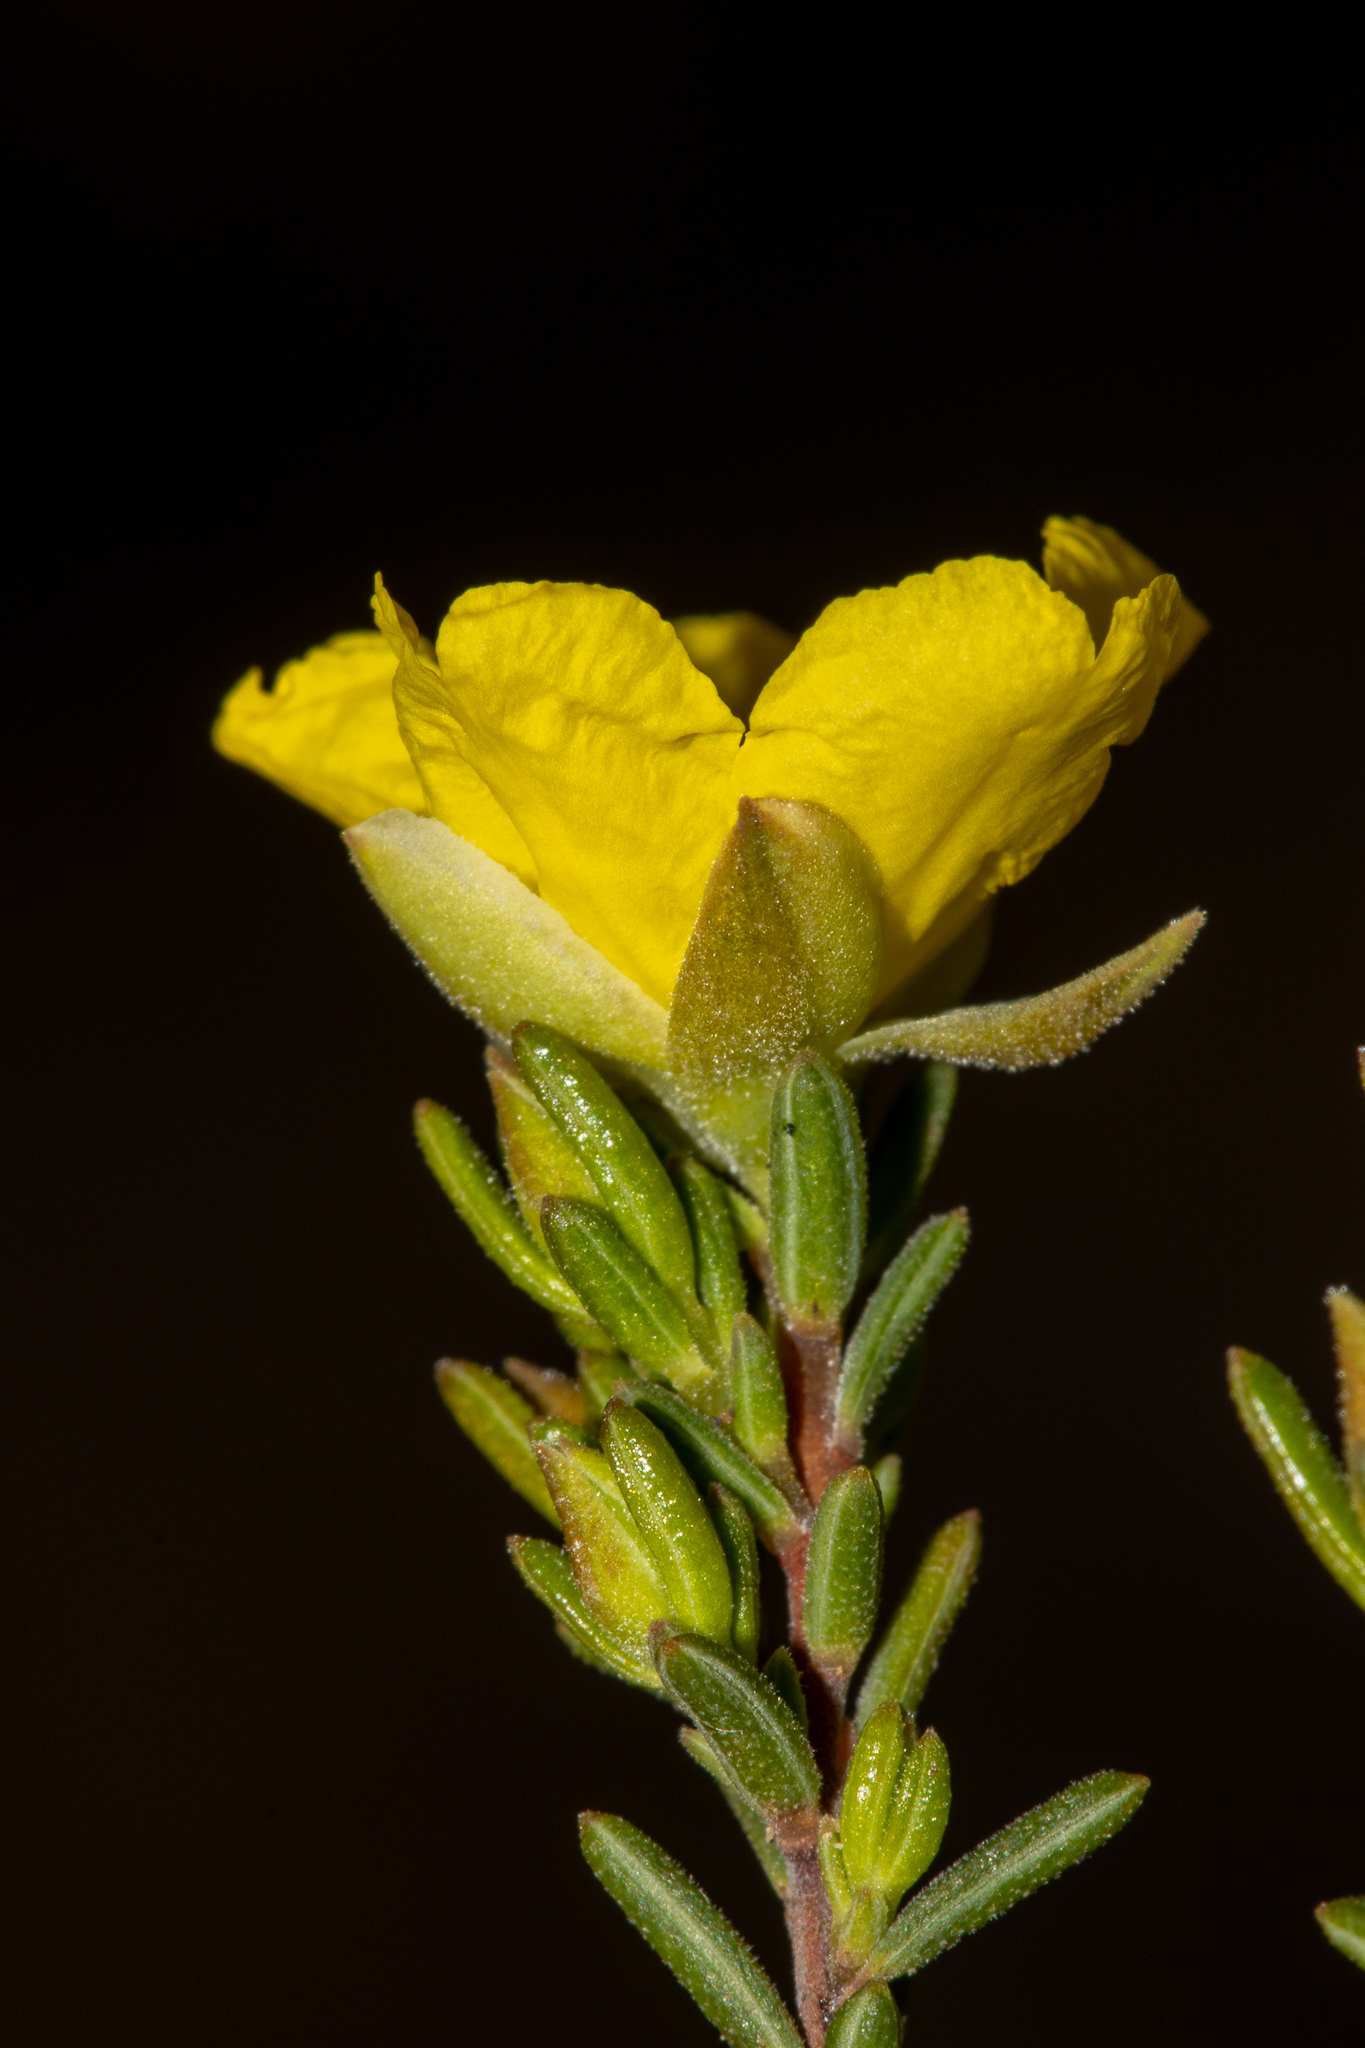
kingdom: Plantae
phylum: Tracheophyta
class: Magnoliopsida
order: Dilleniales
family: Dilleniaceae
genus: Hibbertia
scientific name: Hibbertia devitata
